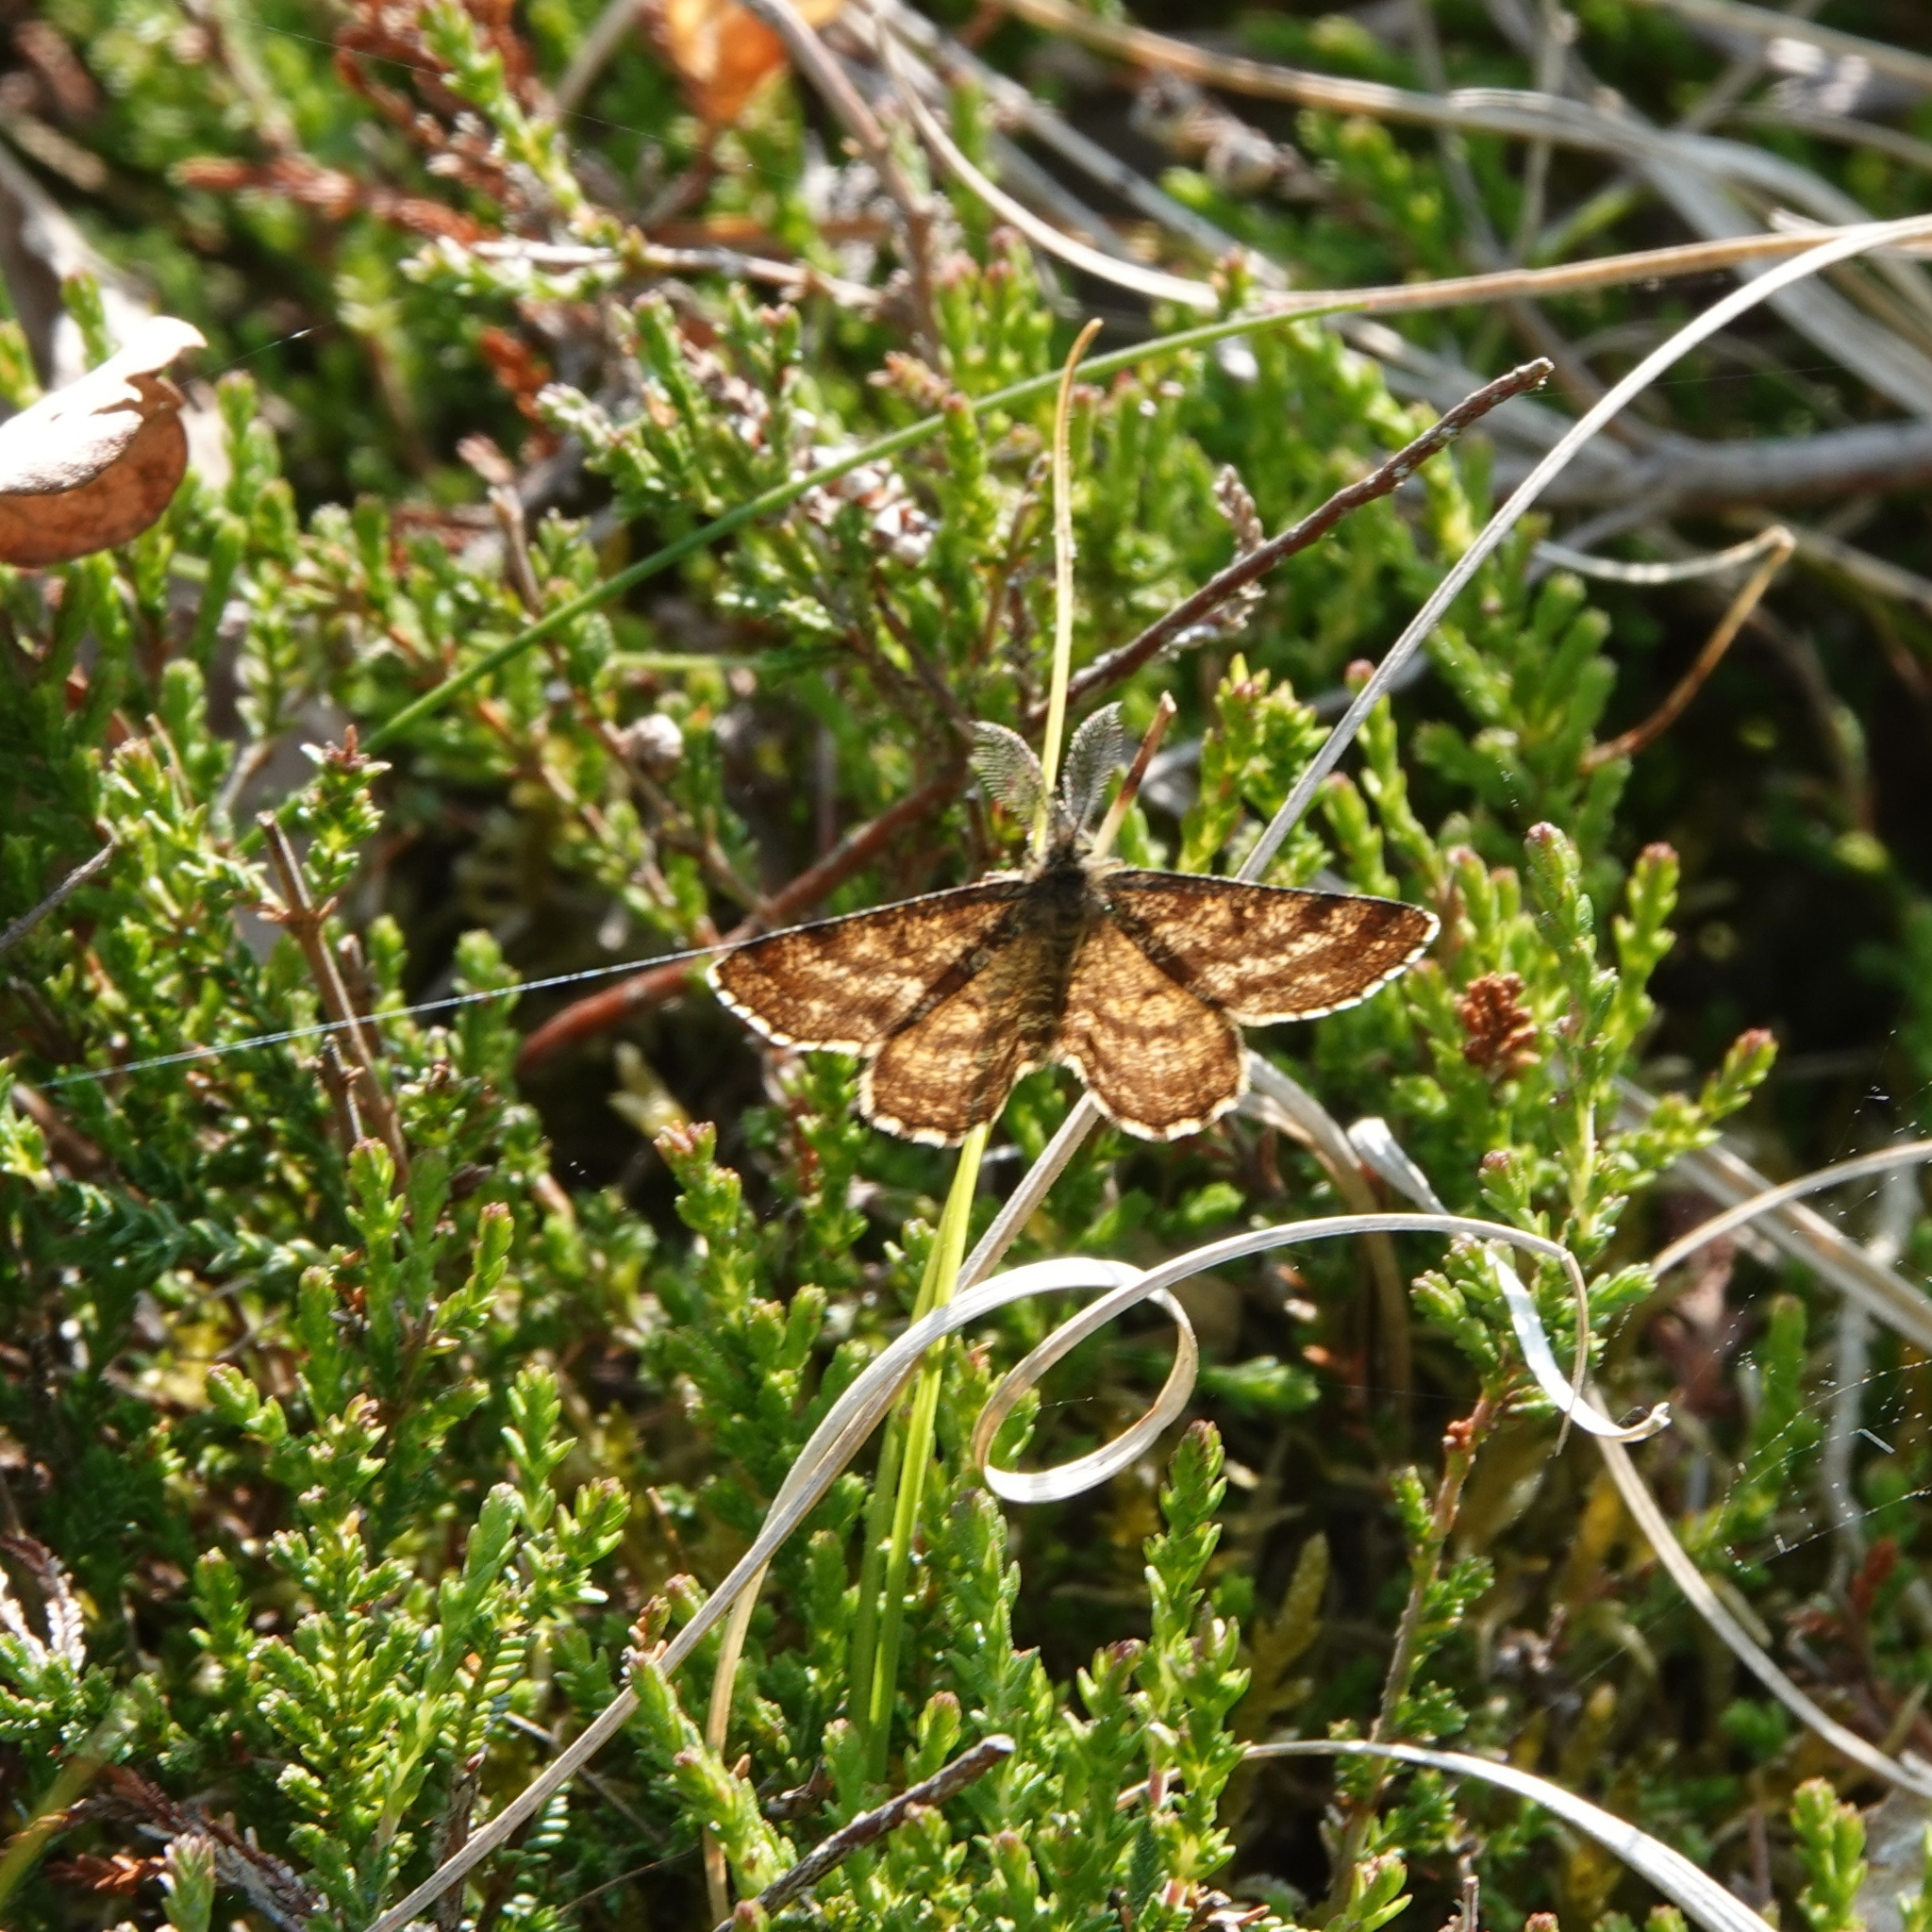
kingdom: Animalia
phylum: Arthropoda
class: Insecta
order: Lepidoptera
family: Geometridae
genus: Ematurga
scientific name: Ematurga atomaria
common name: Common heath
